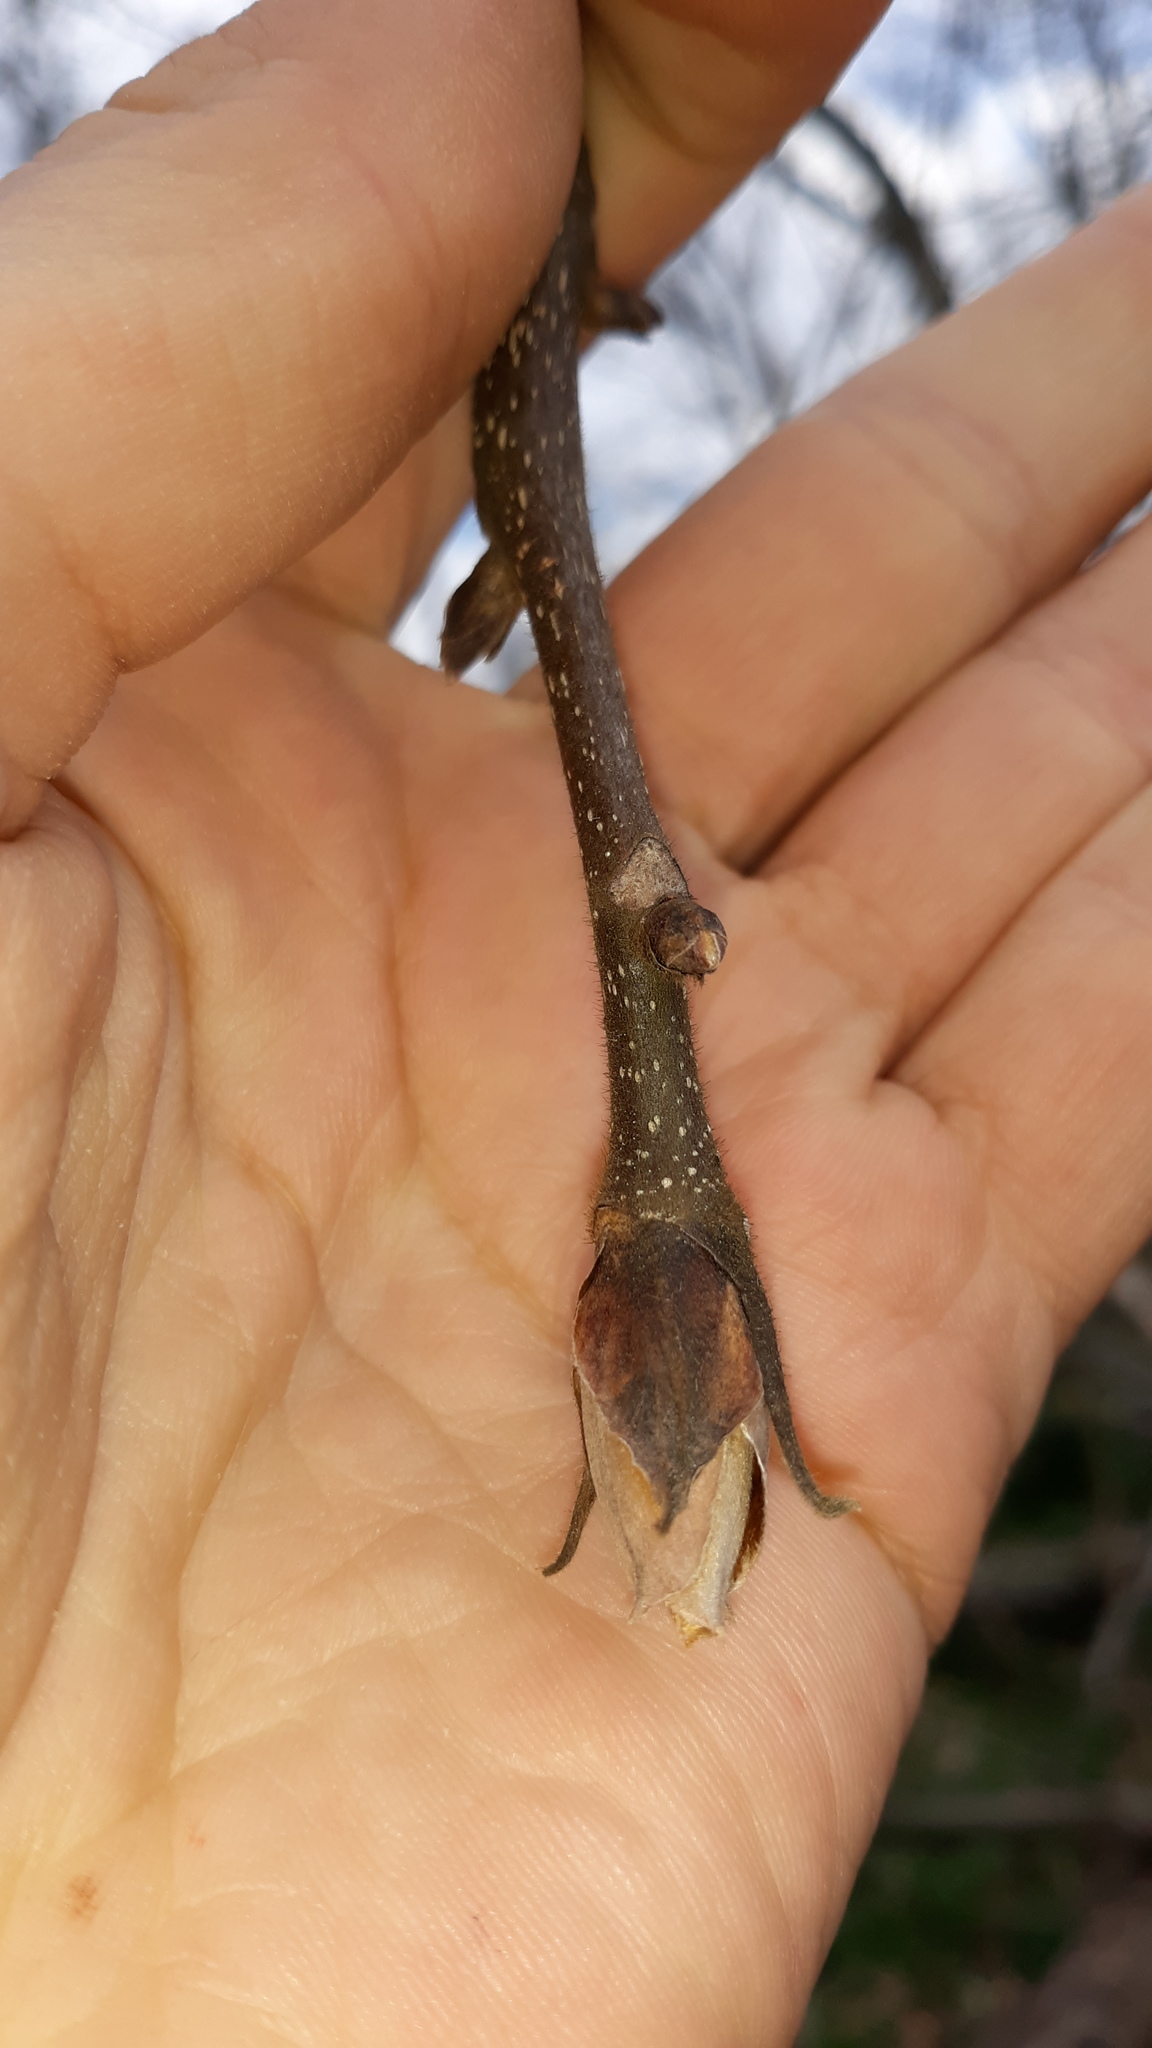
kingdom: Plantae
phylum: Tracheophyta
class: Magnoliopsida
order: Fagales
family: Juglandaceae
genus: Carya
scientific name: Carya ovata
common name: Shagbark hickory
